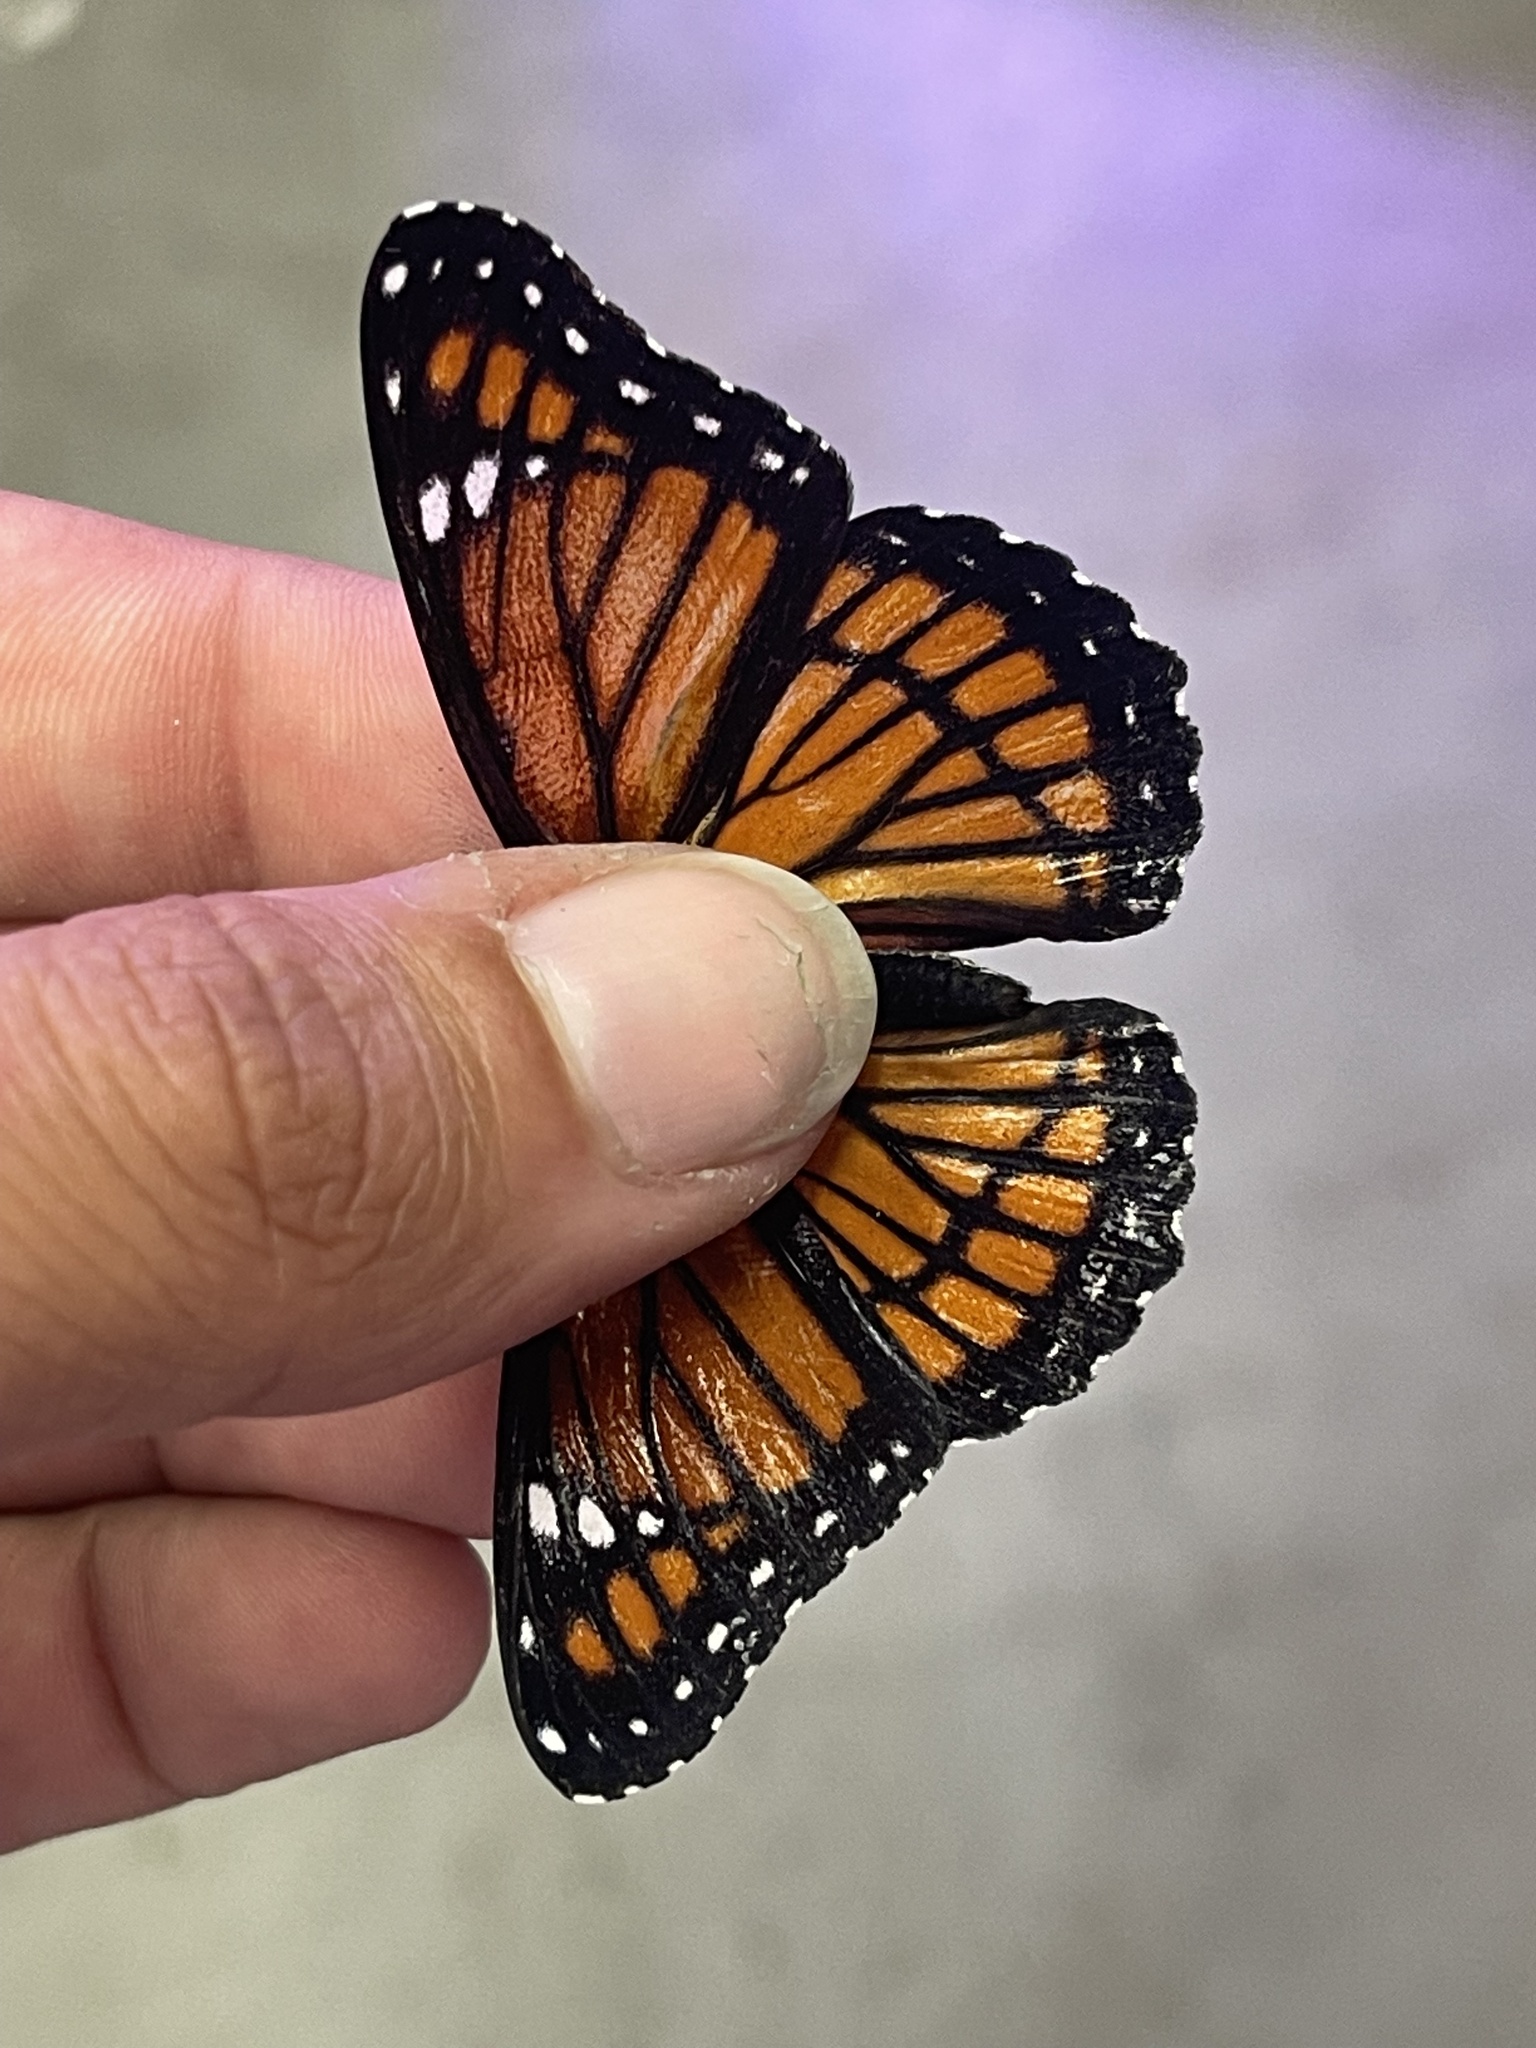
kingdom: Animalia
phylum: Arthropoda
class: Insecta
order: Lepidoptera
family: Nymphalidae
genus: Limenitis
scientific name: Limenitis archippus
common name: Viceroy
